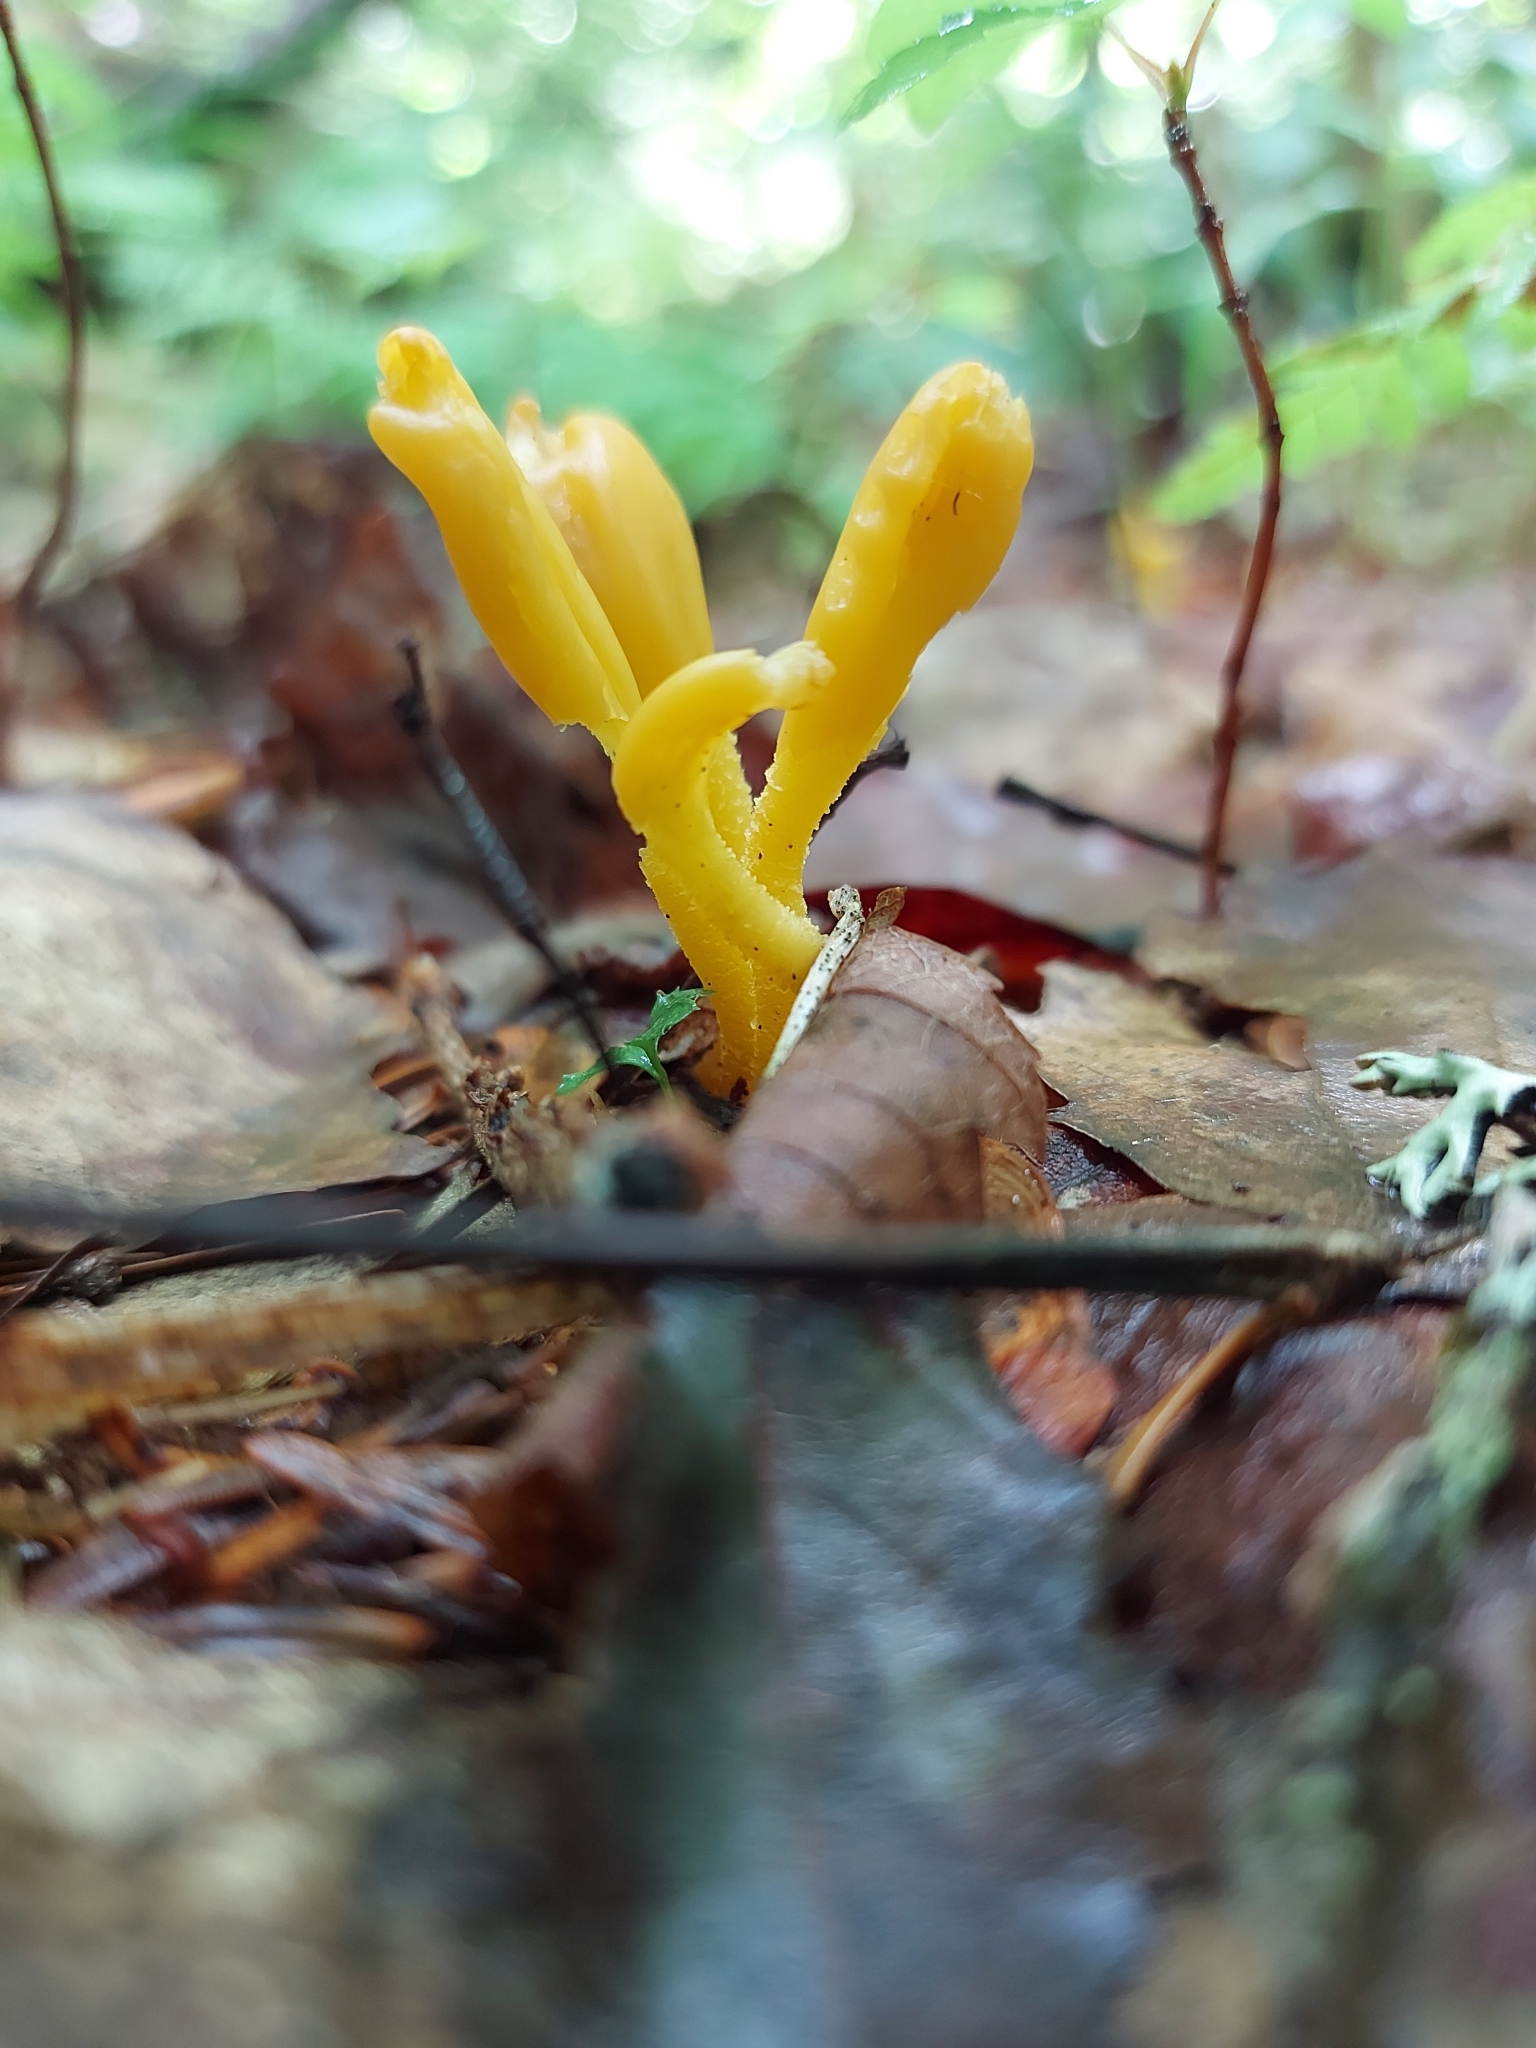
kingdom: Fungi
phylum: Ascomycota
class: Leotiomycetes
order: Leotiales
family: Leotiaceae
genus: Microglossum
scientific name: Microglossum rufum
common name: Orange earthtongue
